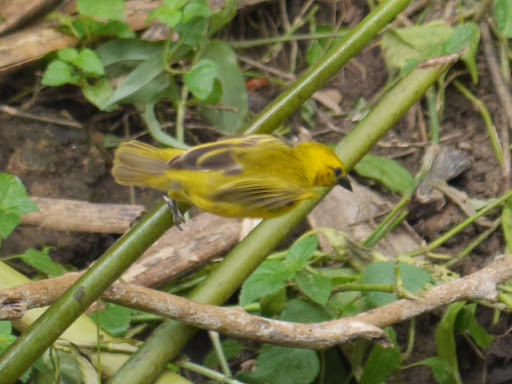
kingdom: Animalia
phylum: Chordata
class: Aves
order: Passeriformes
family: Ploceidae
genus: Ploceus
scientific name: Ploceus pelzelni
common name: Slender-billed weaver
